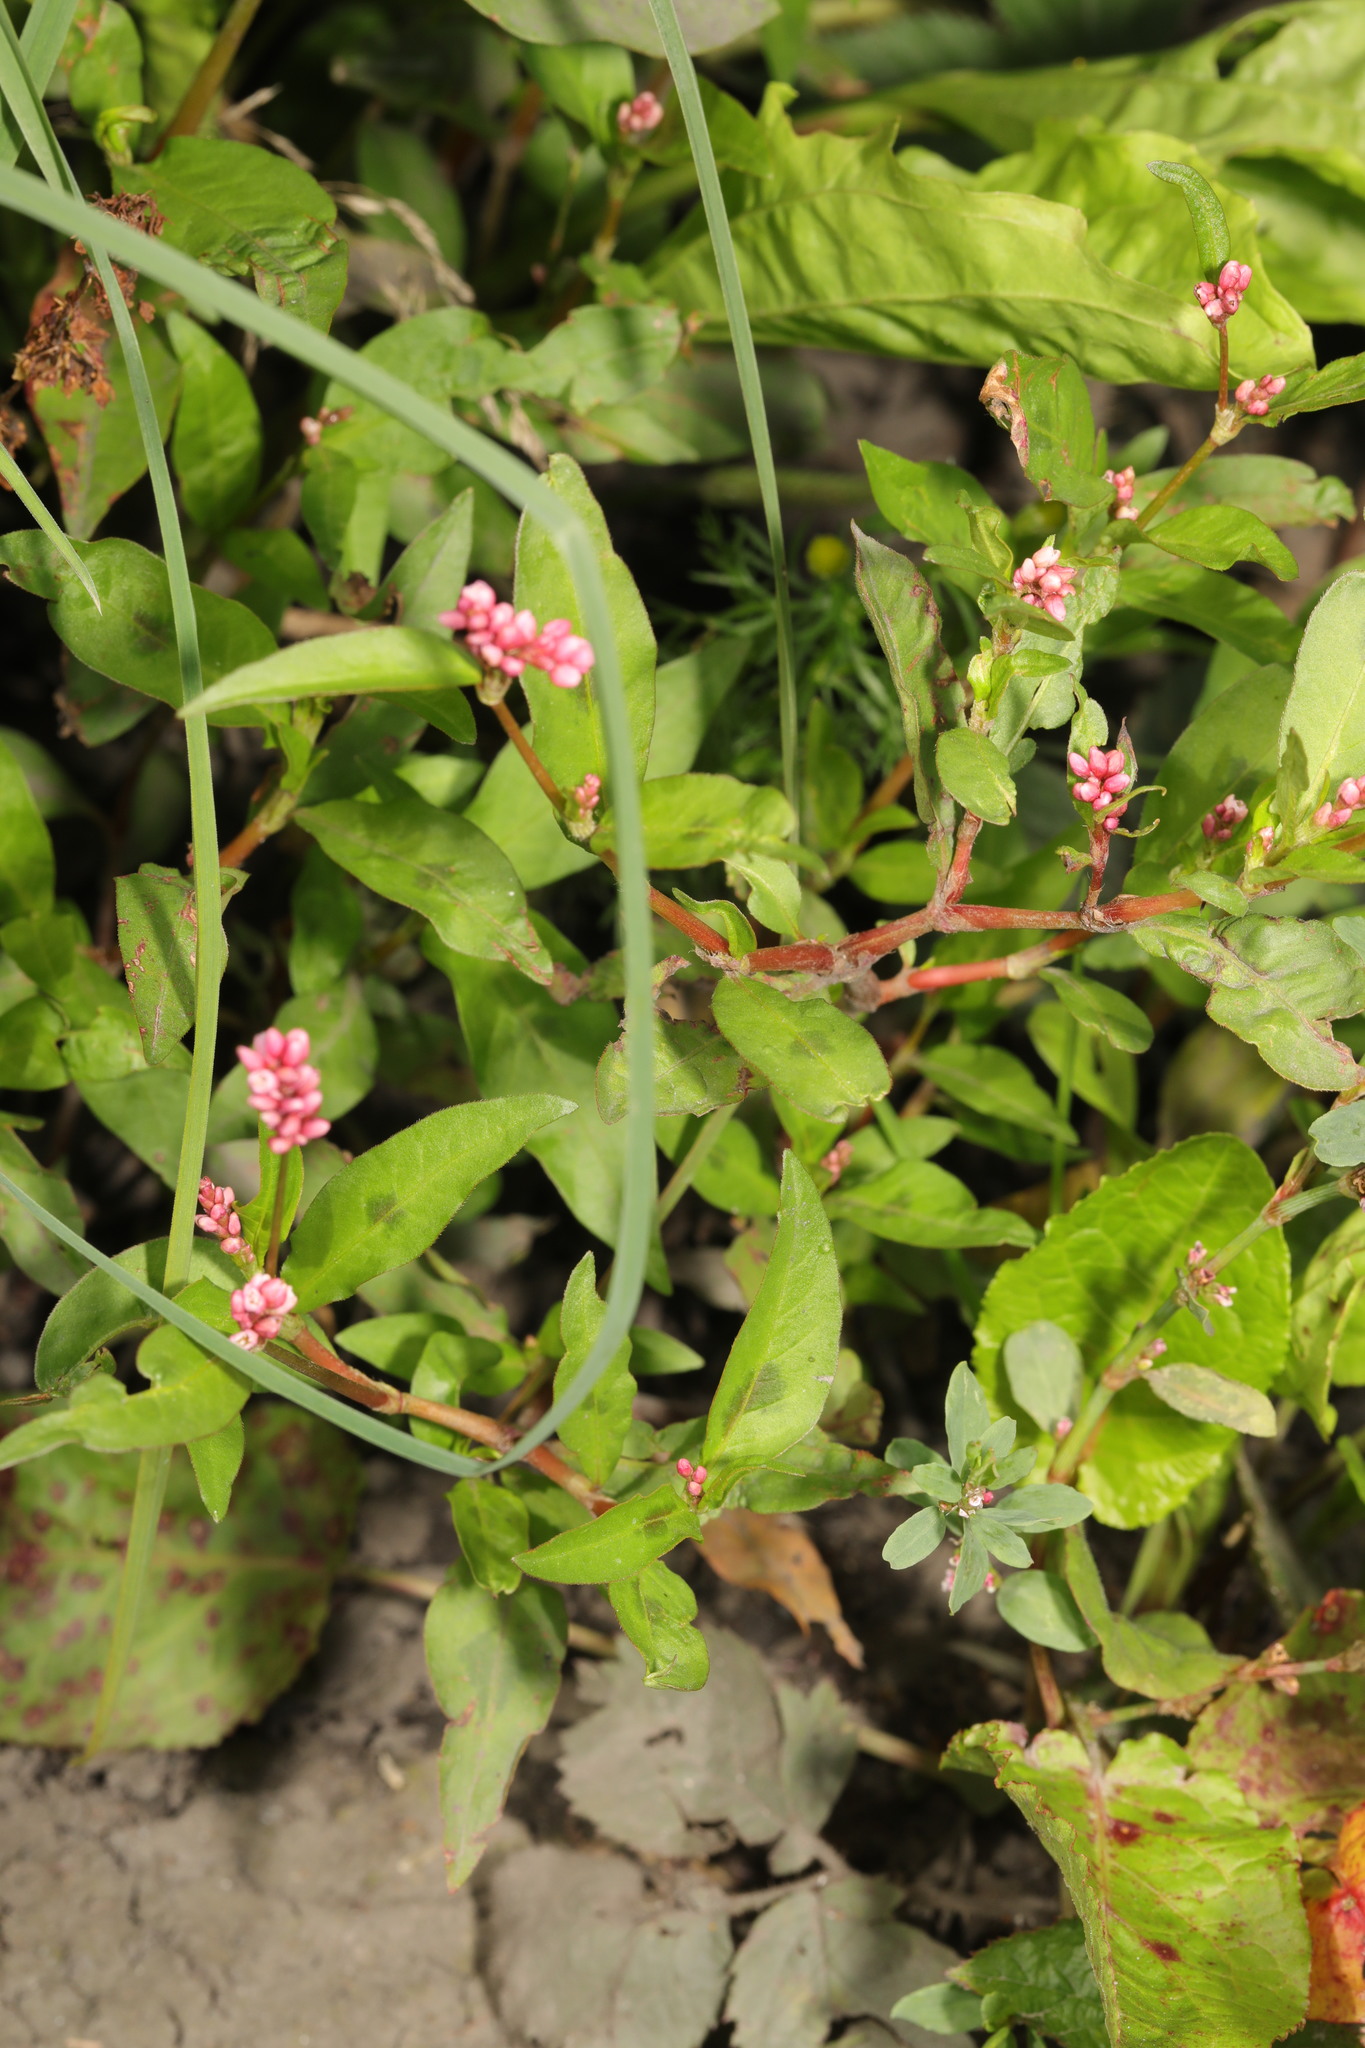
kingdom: Plantae
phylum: Tracheophyta
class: Magnoliopsida
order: Caryophyllales
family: Polygonaceae
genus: Persicaria
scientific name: Persicaria maculosa
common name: Redshank
